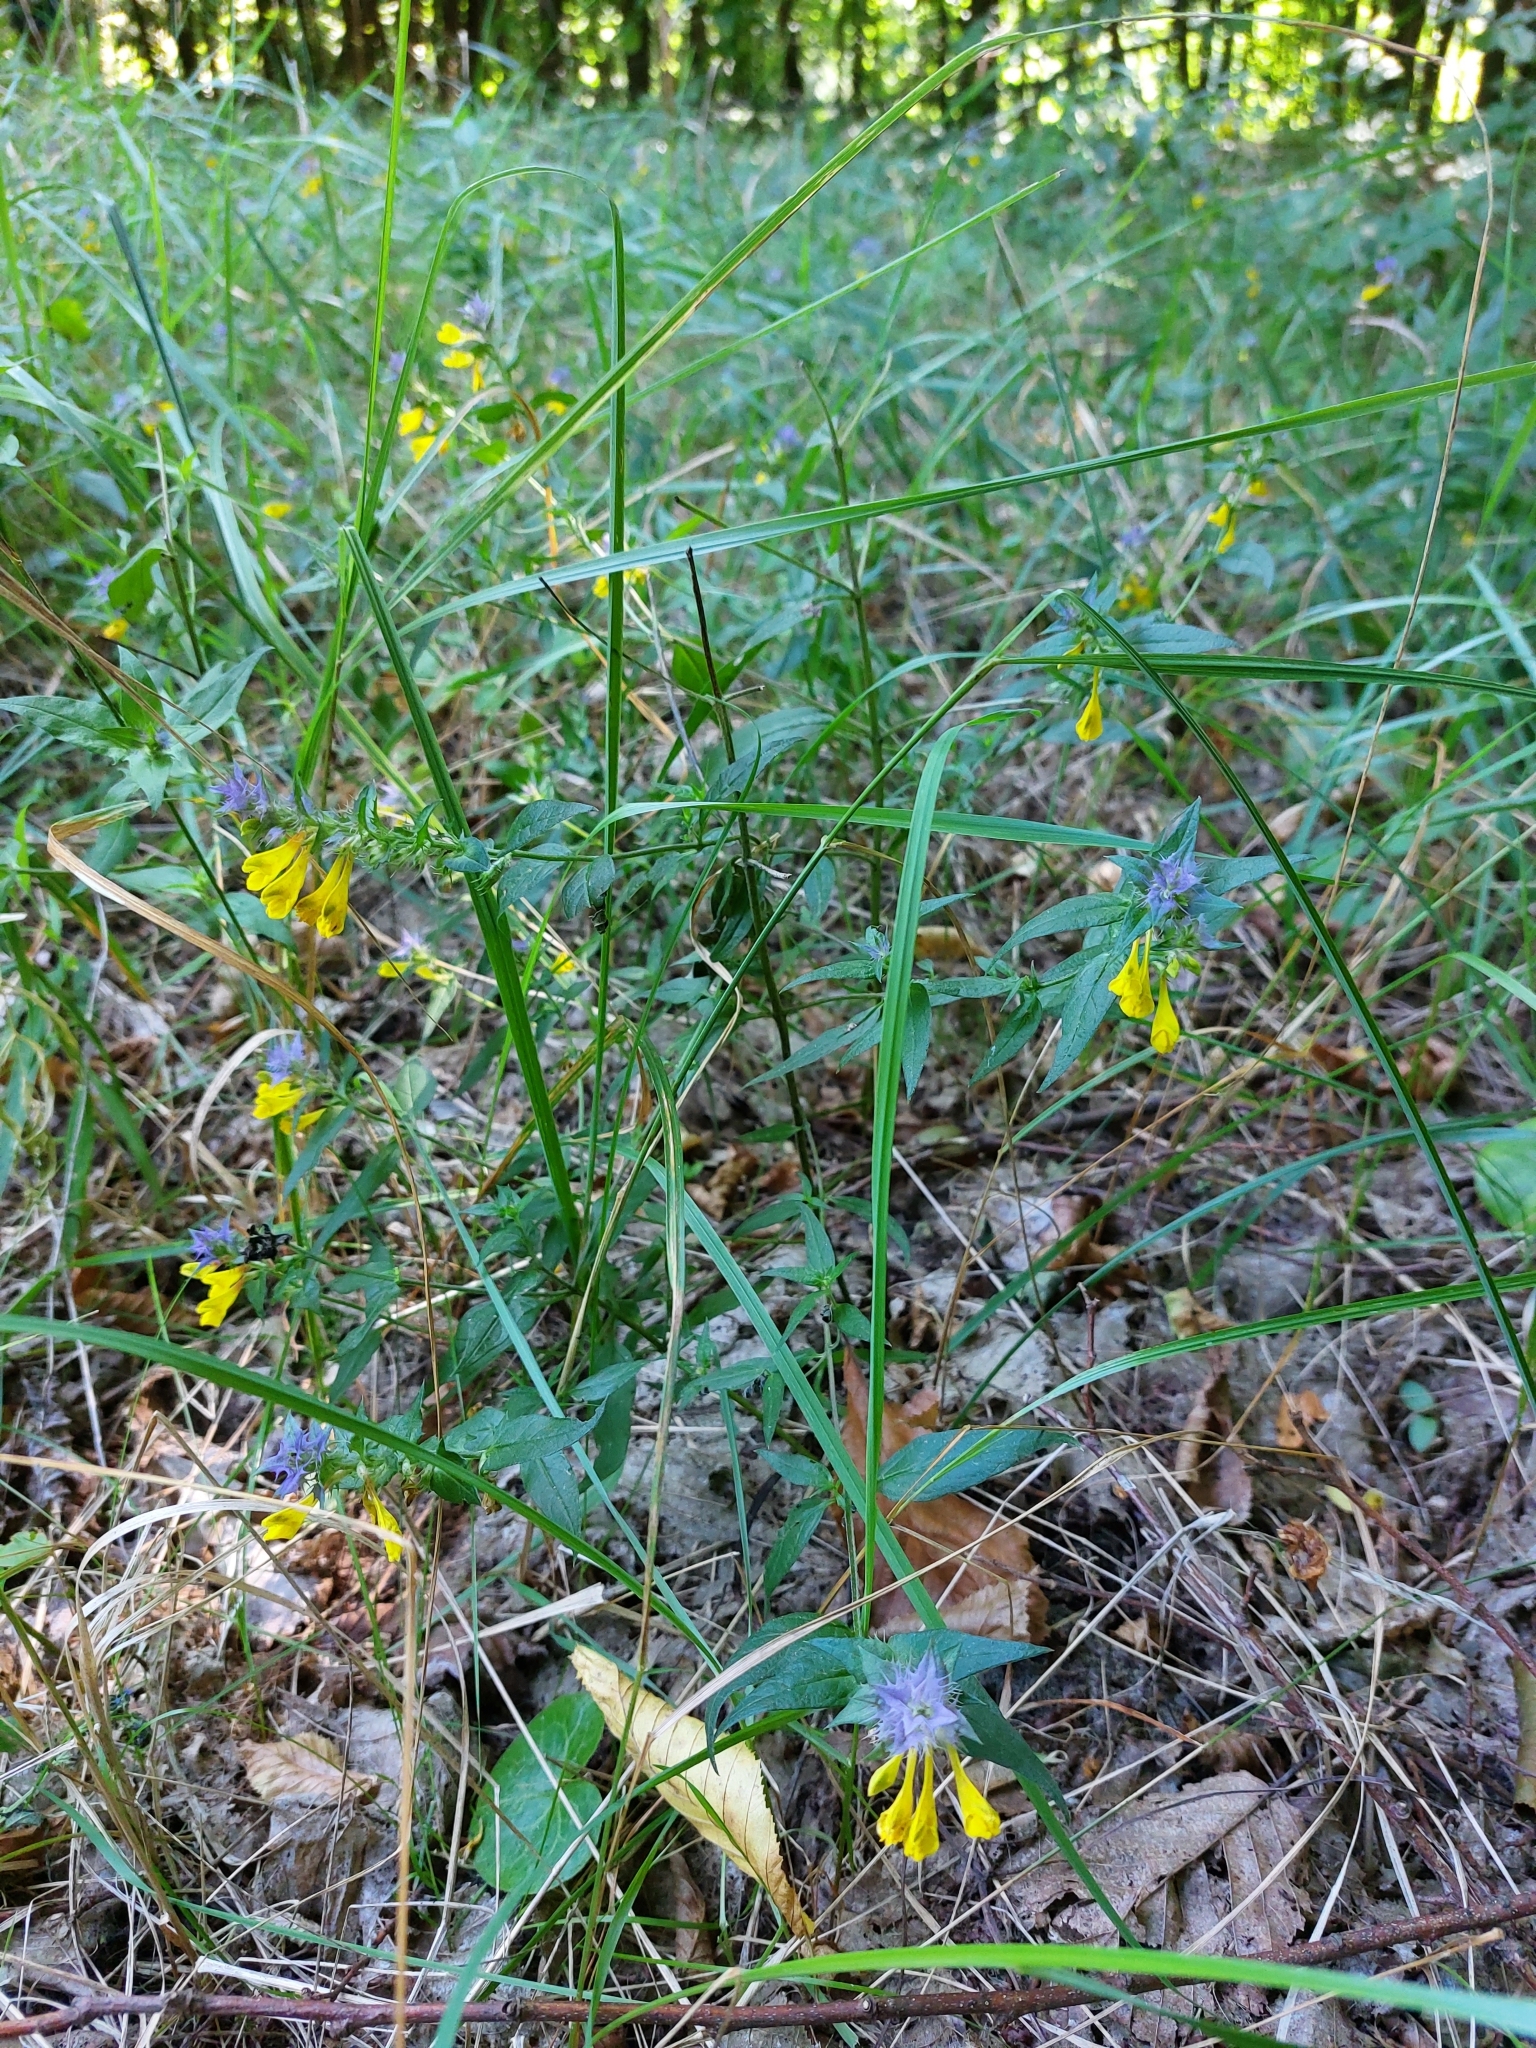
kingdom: Plantae
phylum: Tracheophyta
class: Magnoliopsida
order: Lamiales
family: Orobanchaceae
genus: Melampyrum
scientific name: Melampyrum nemorosum
